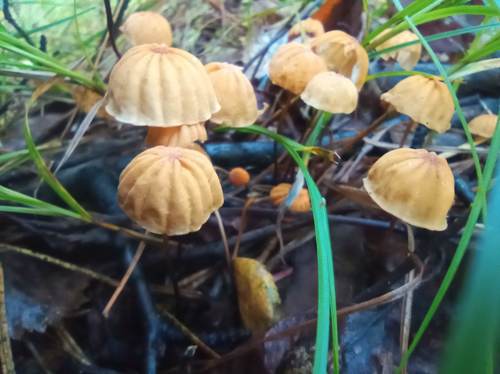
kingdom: Fungi
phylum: Basidiomycota
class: Agaricomycetes
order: Agaricales
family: Marasmiaceae
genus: Marasmius
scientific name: Marasmius siccus
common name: Orange pinwheel
